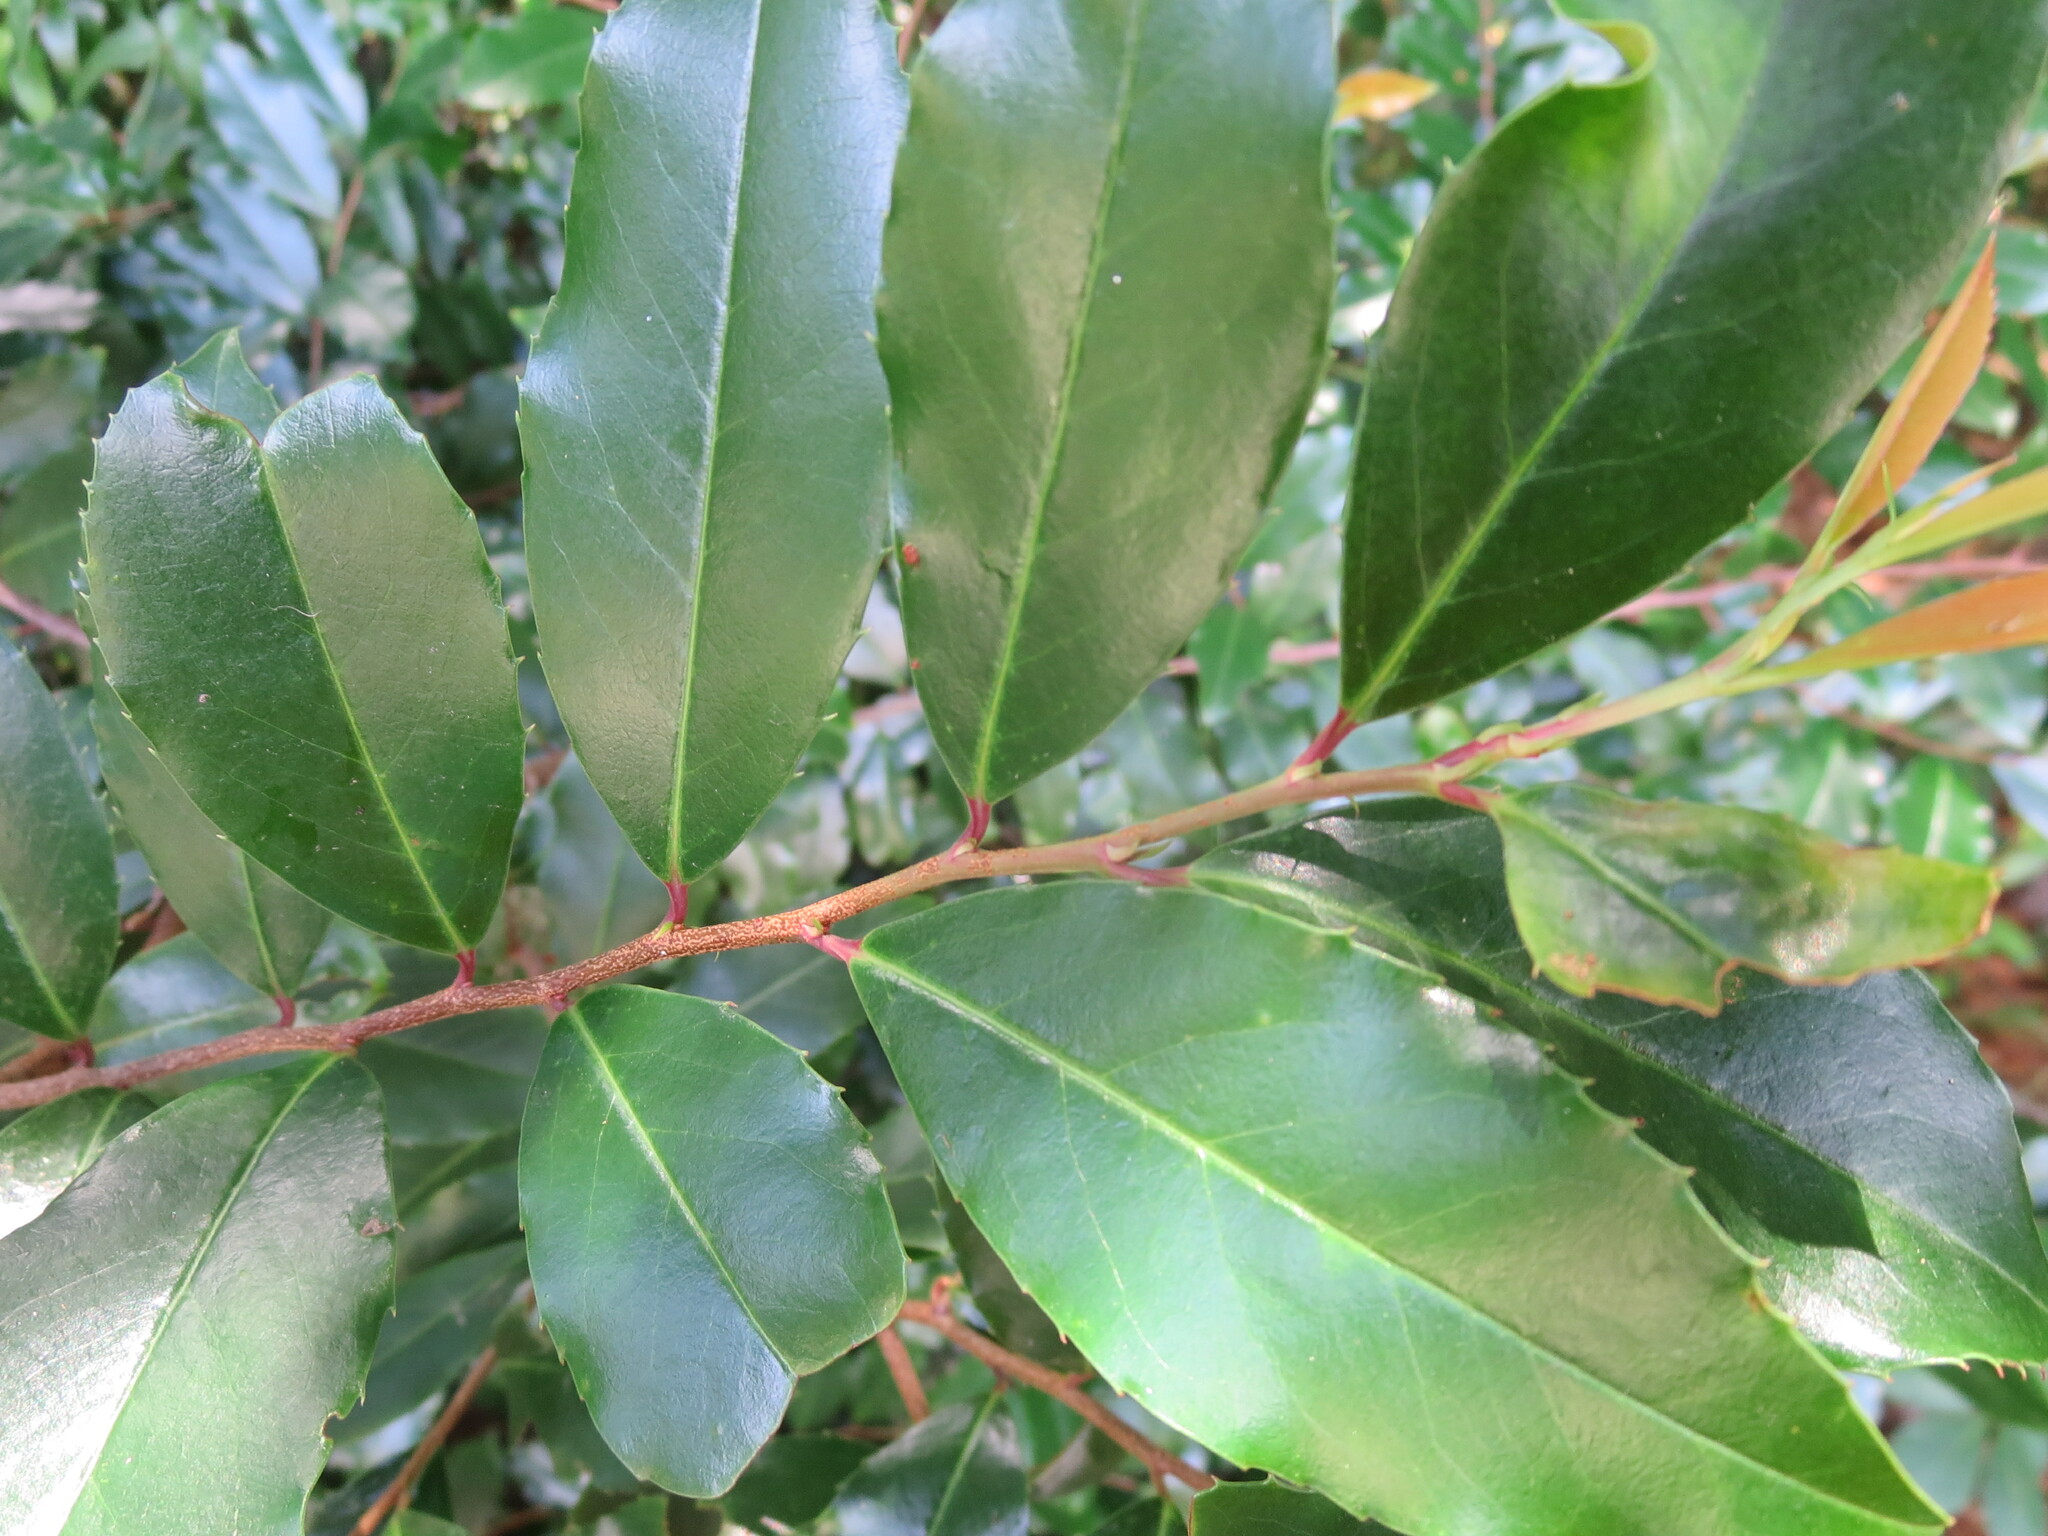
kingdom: Plantae
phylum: Tracheophyta
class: Magnoliopsida
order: Rosales
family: Rosaceae
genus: Prunus
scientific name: Prunus caroliniana
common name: Carolina laurel cherry
